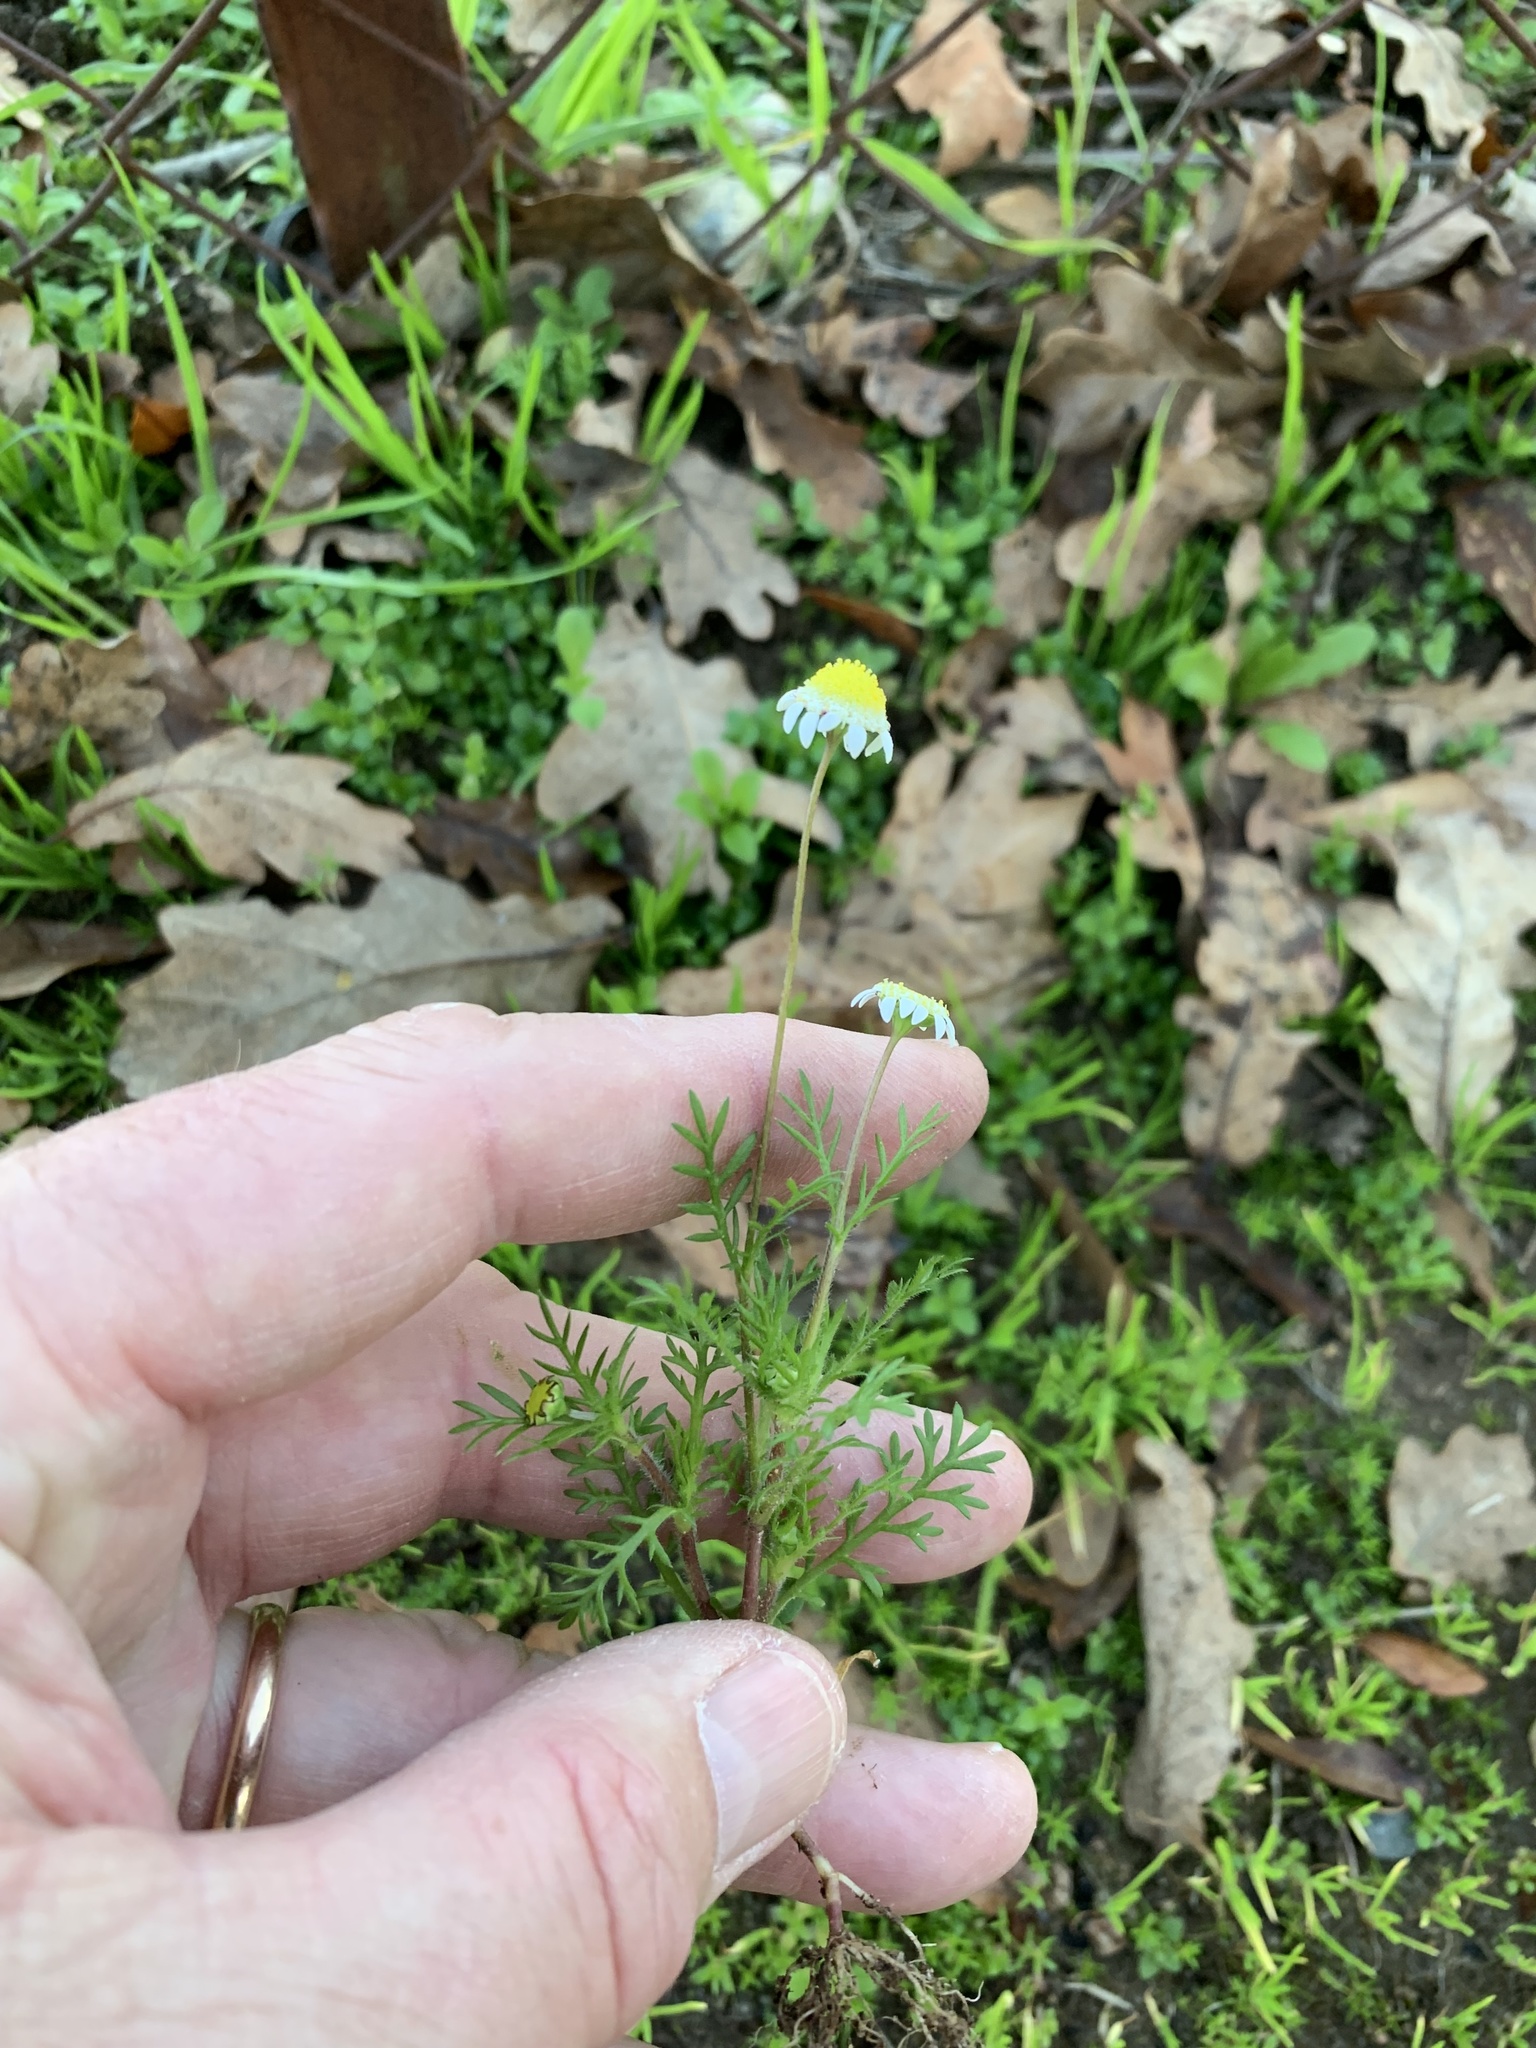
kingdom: Plantae
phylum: Tracheophyta
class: Magnoliopsida
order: Asterales
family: Asteraceae
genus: Cotula
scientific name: Cotula turbinata
